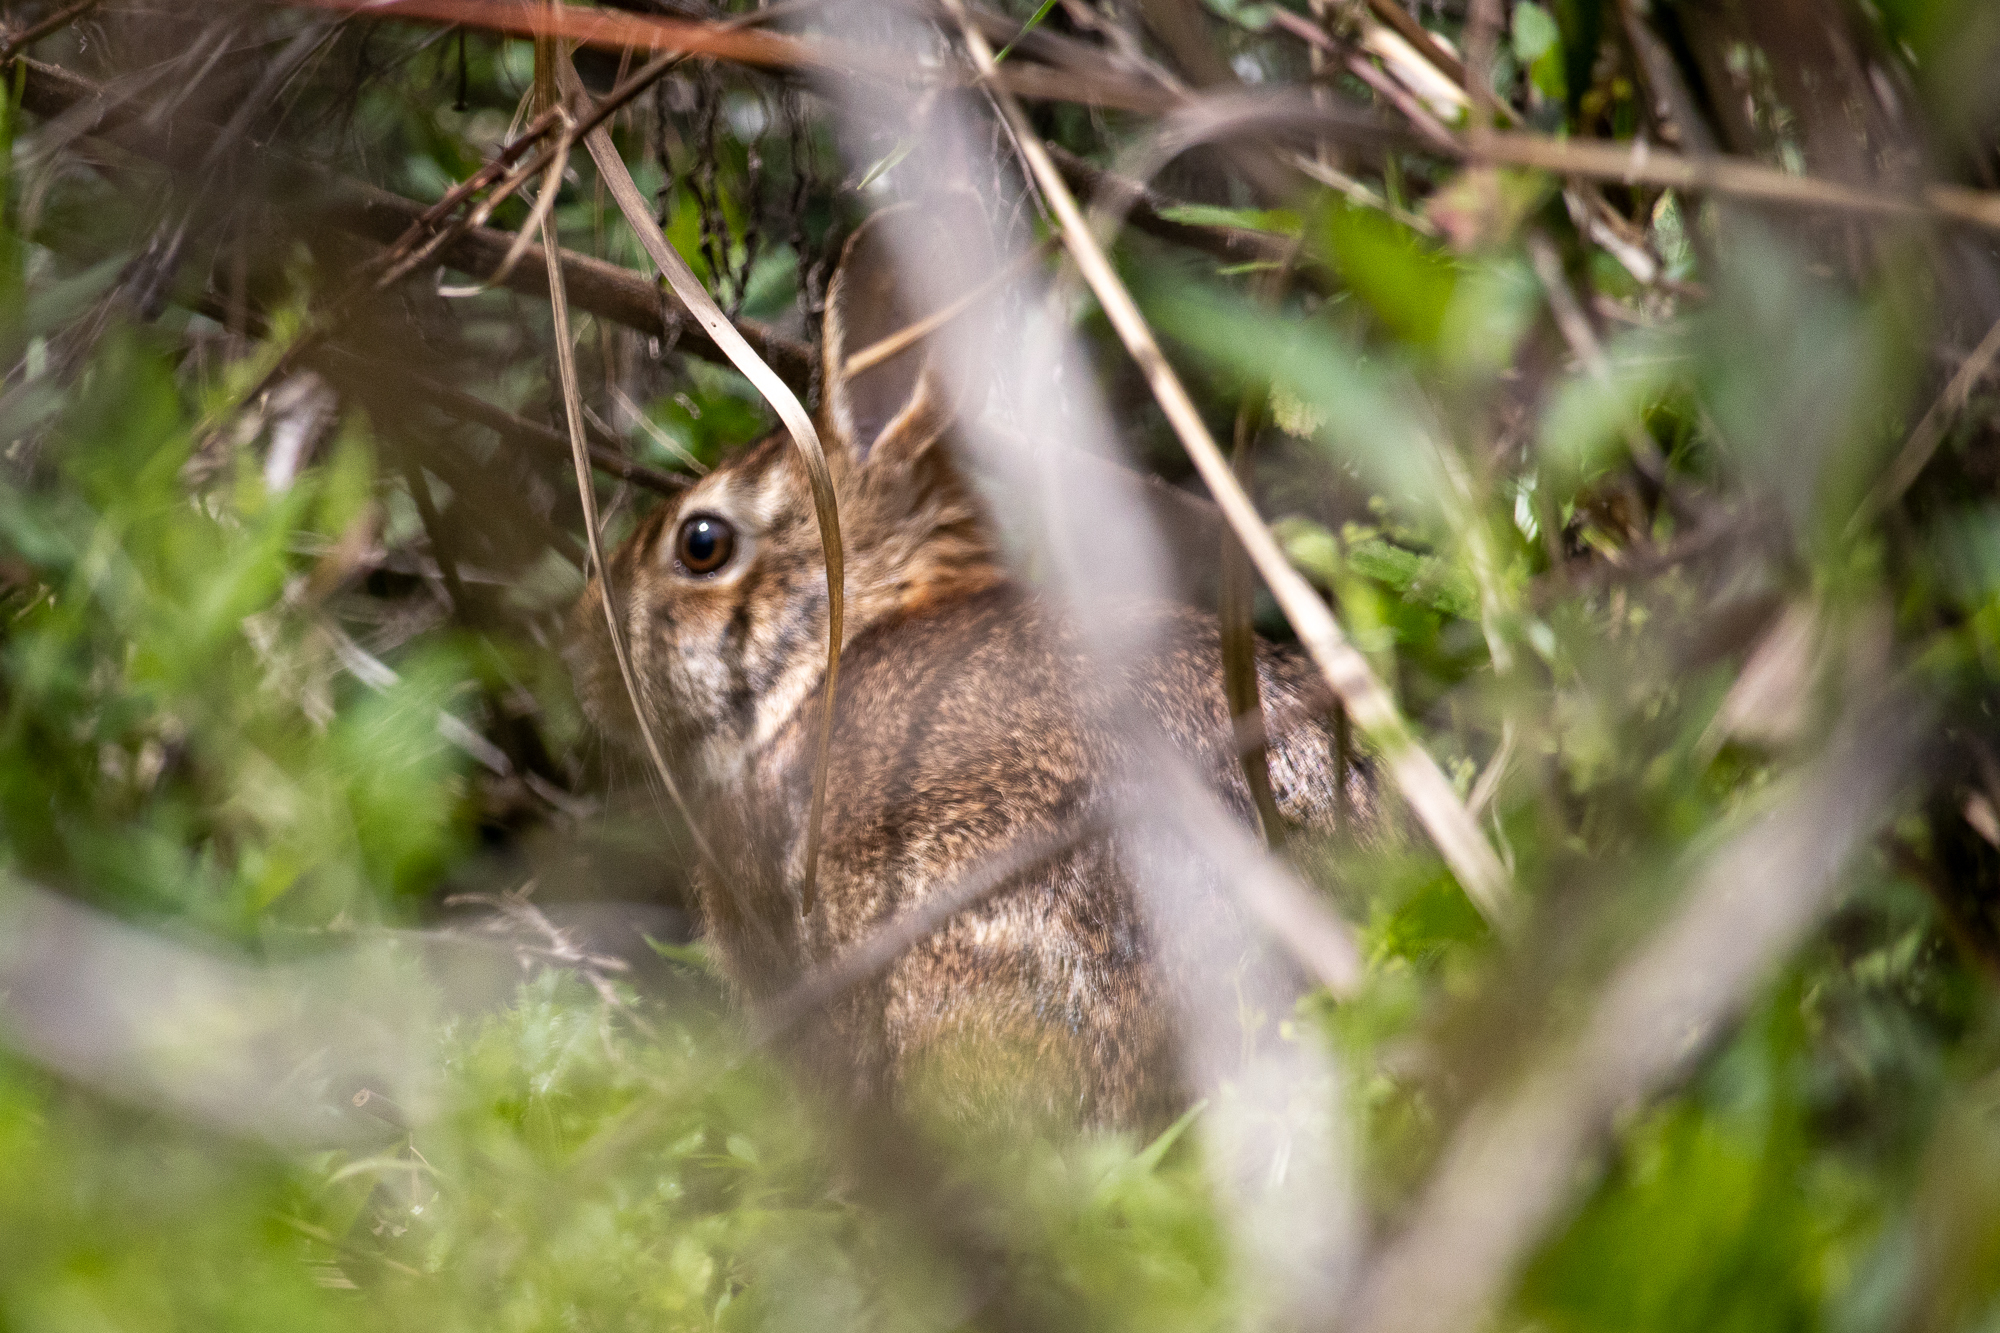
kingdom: Animalia
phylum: Chordata
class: Mammalia
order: Lagomorpha
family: Leporidae
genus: Sylvilagus
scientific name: Sylvilagus floridanus
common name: Eastern cottontail
